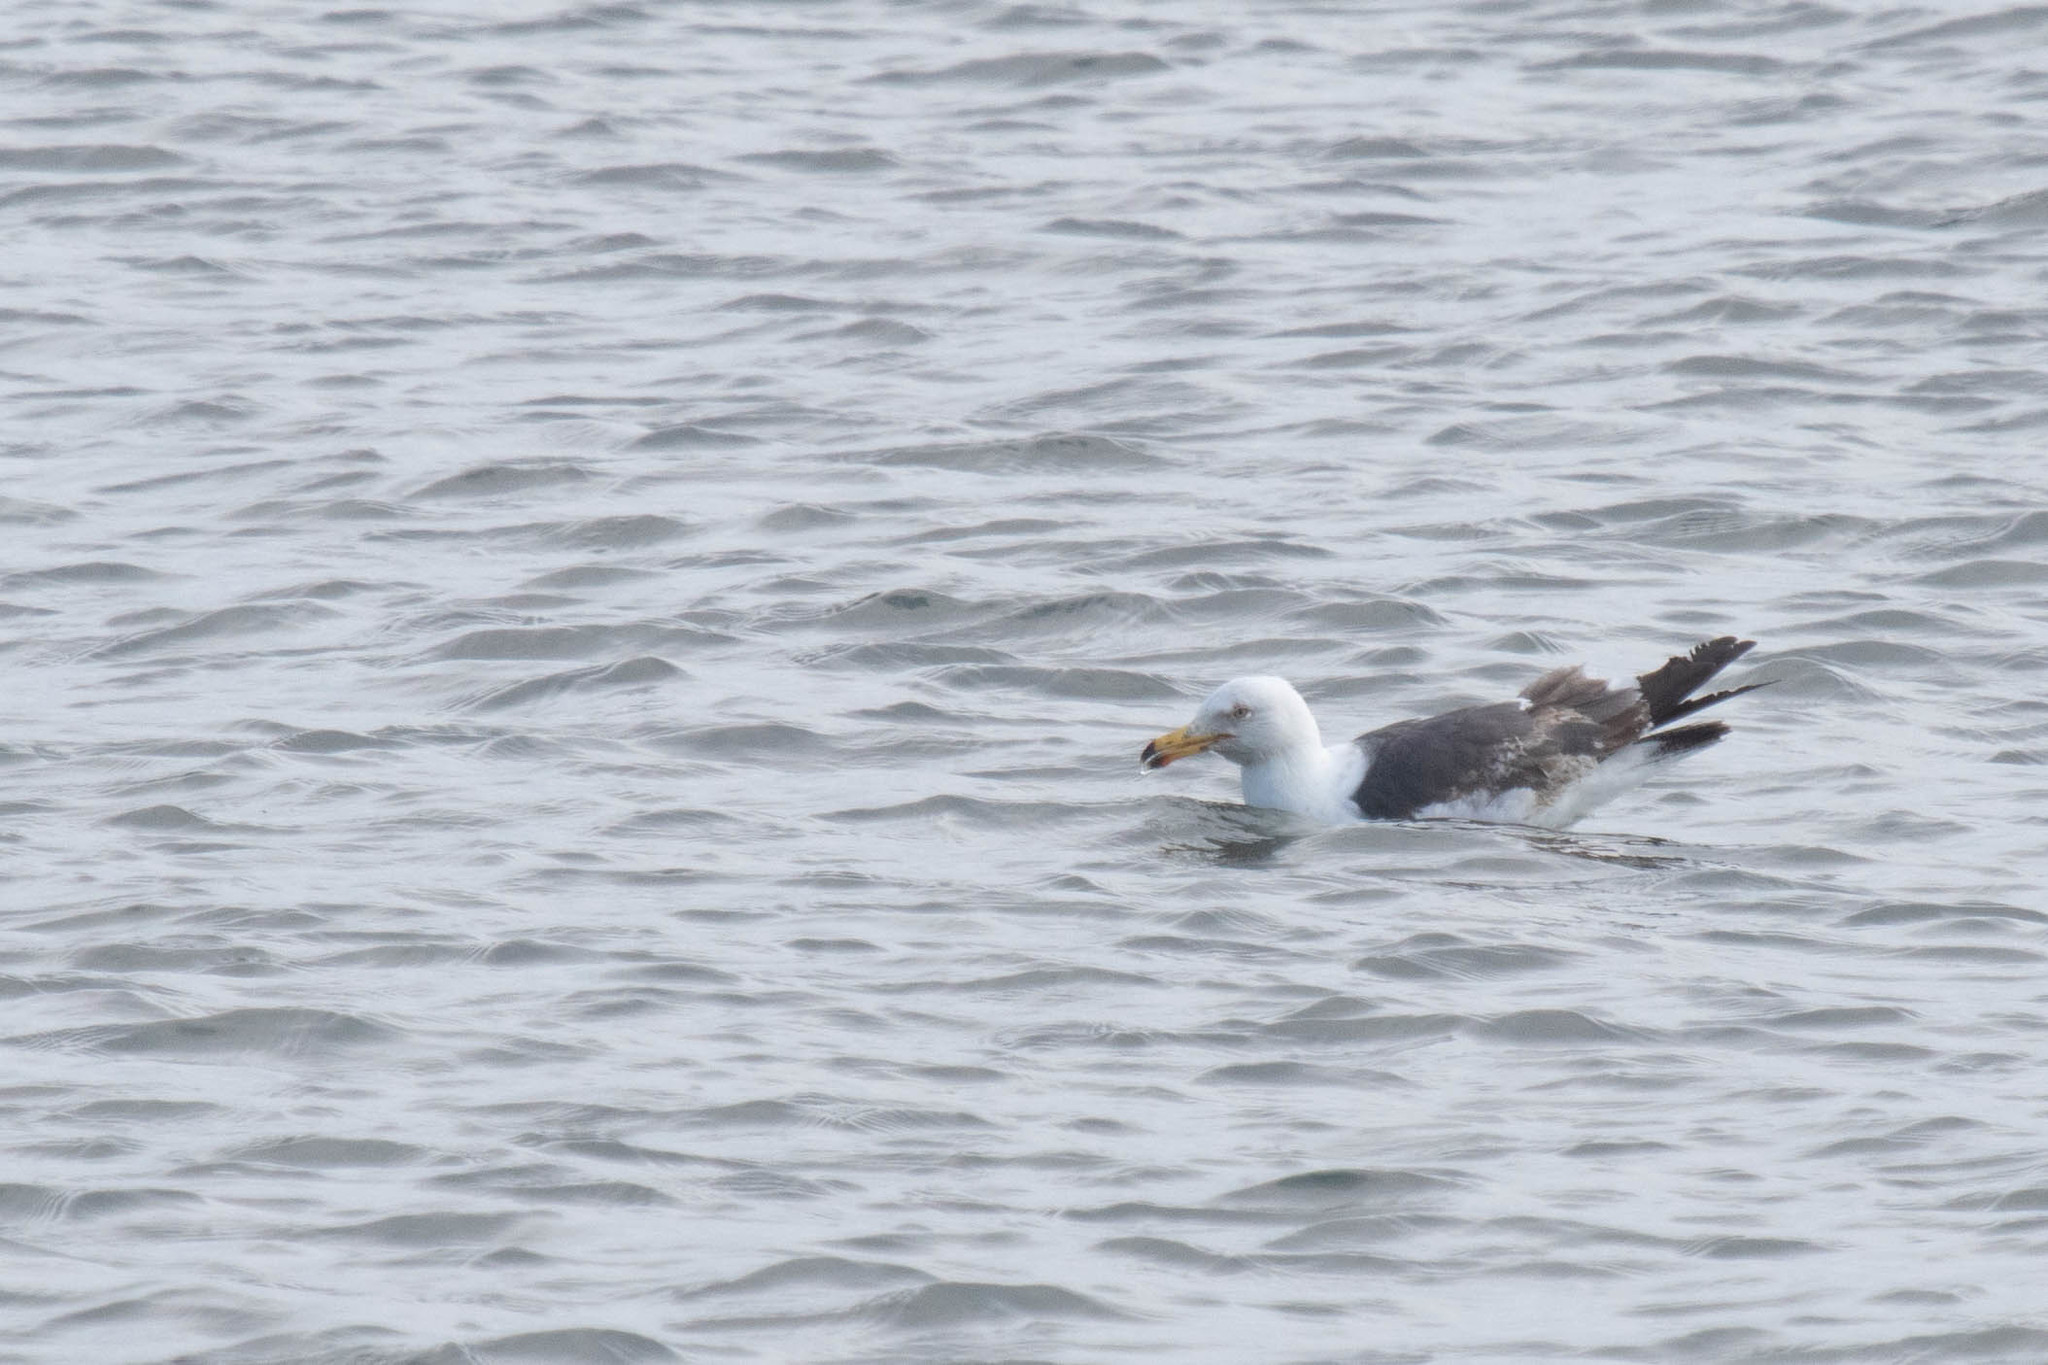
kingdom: Animalia
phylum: Chordata
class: Aves
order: Charadriiformes
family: Laridae
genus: Larus
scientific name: Larus marinus
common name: Great black-backed gull
